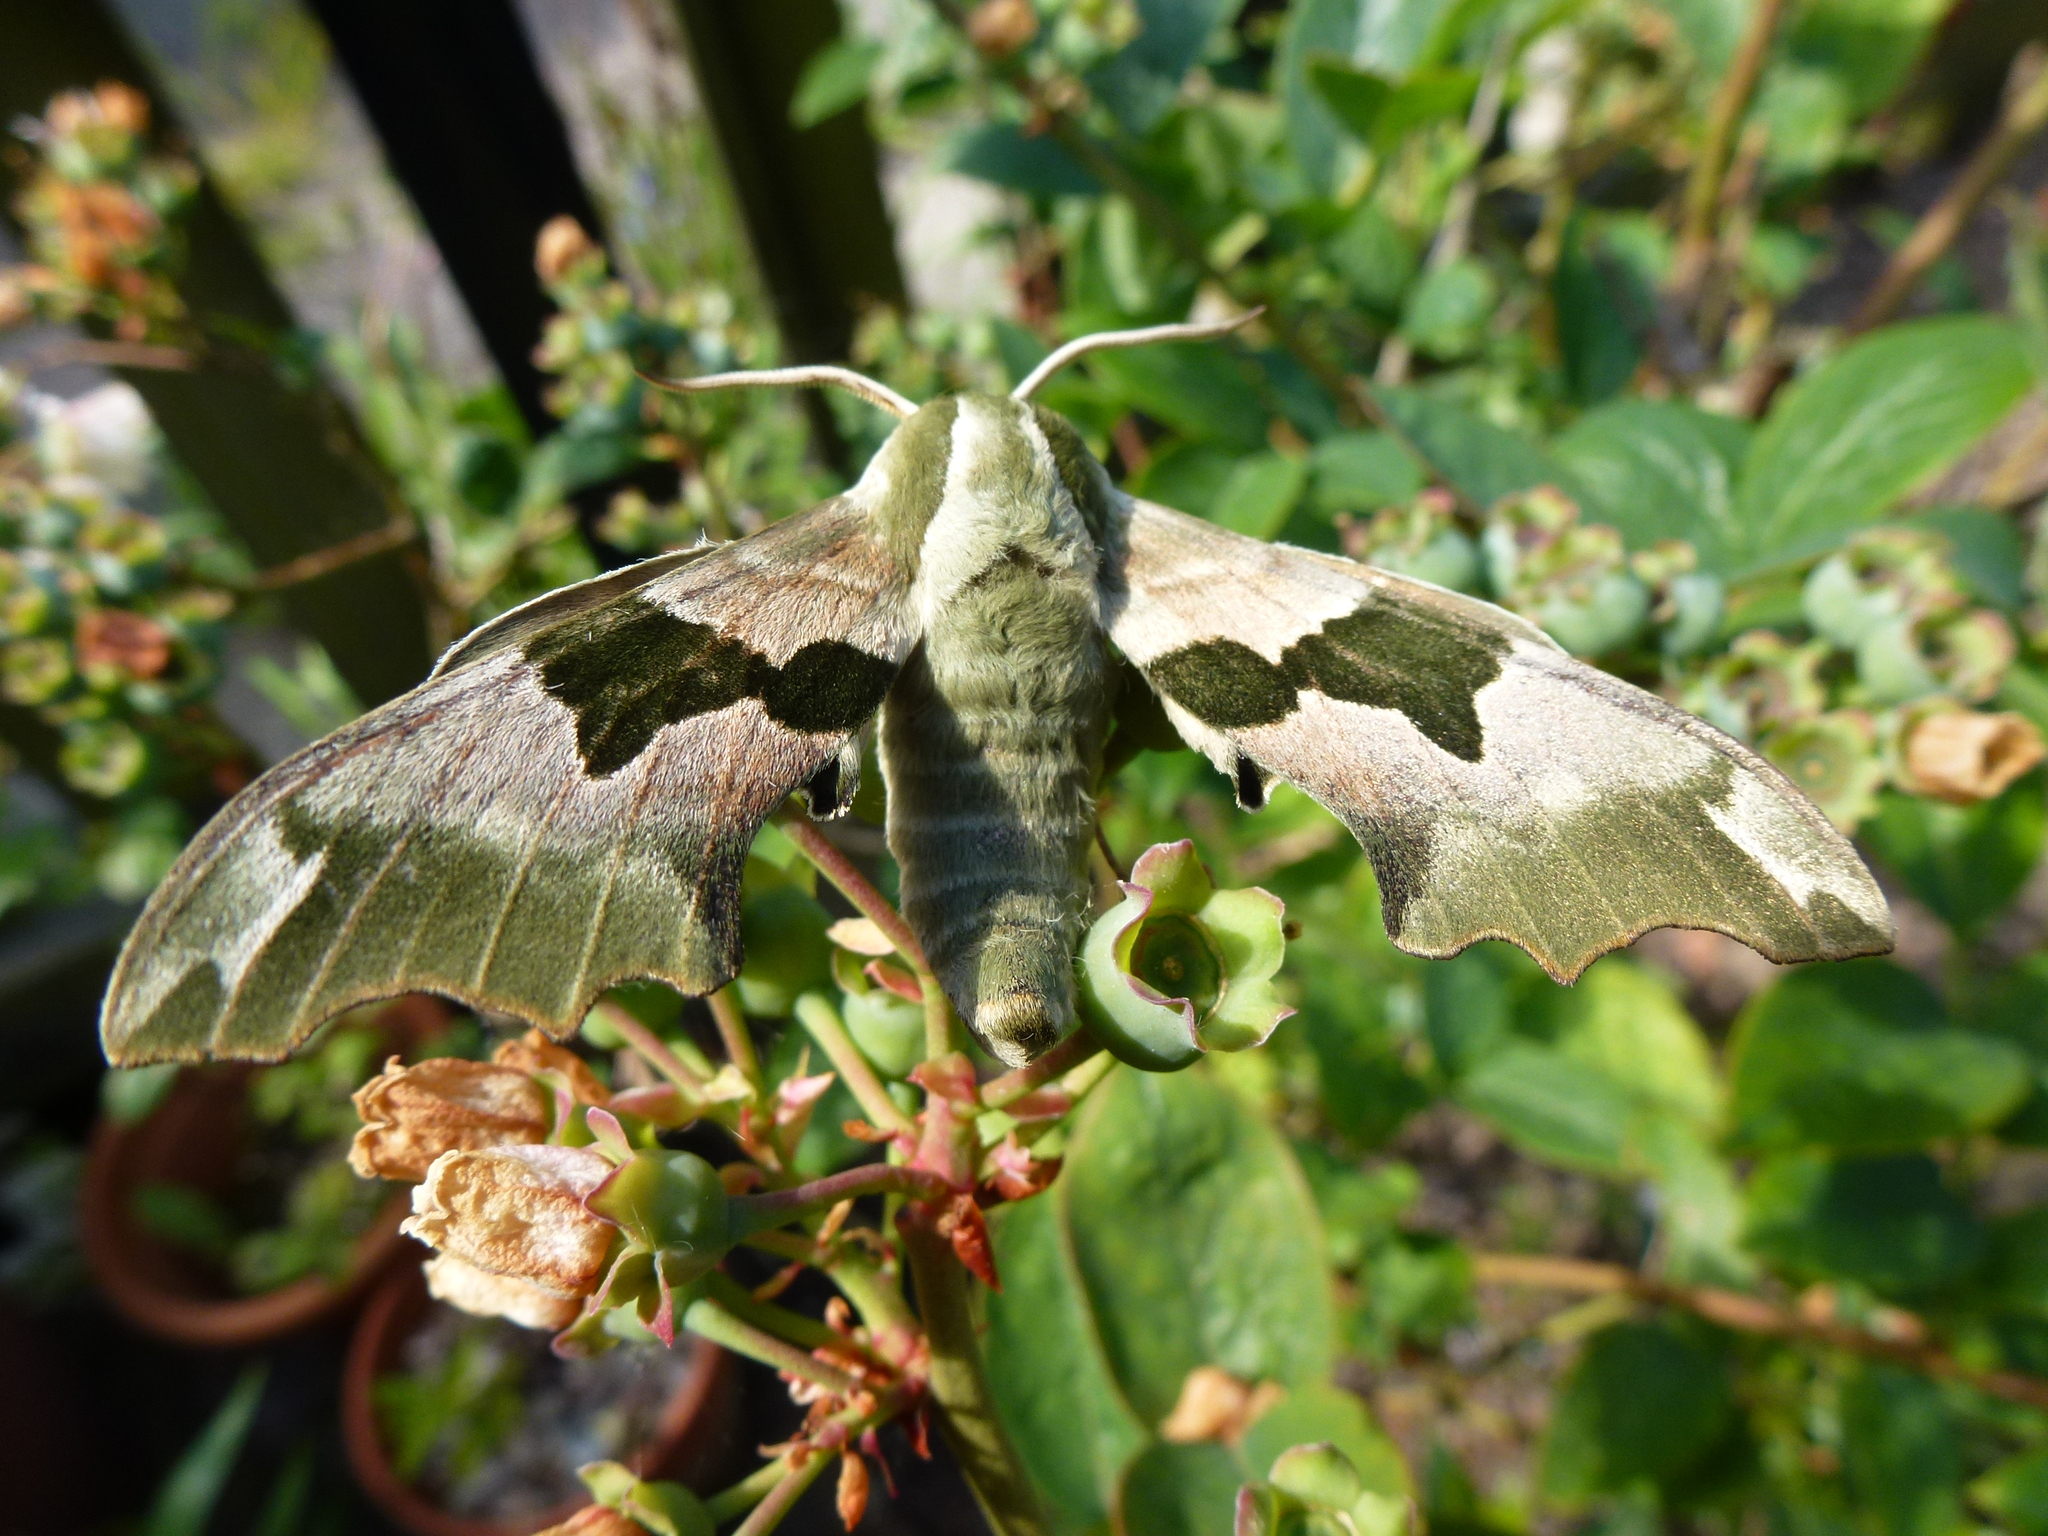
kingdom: Animalia
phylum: Arthropoda
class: Insecta
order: Lepidoptera
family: Sphingidae
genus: Mimas
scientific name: Mimas tiliae
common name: Lime hawk-moth
